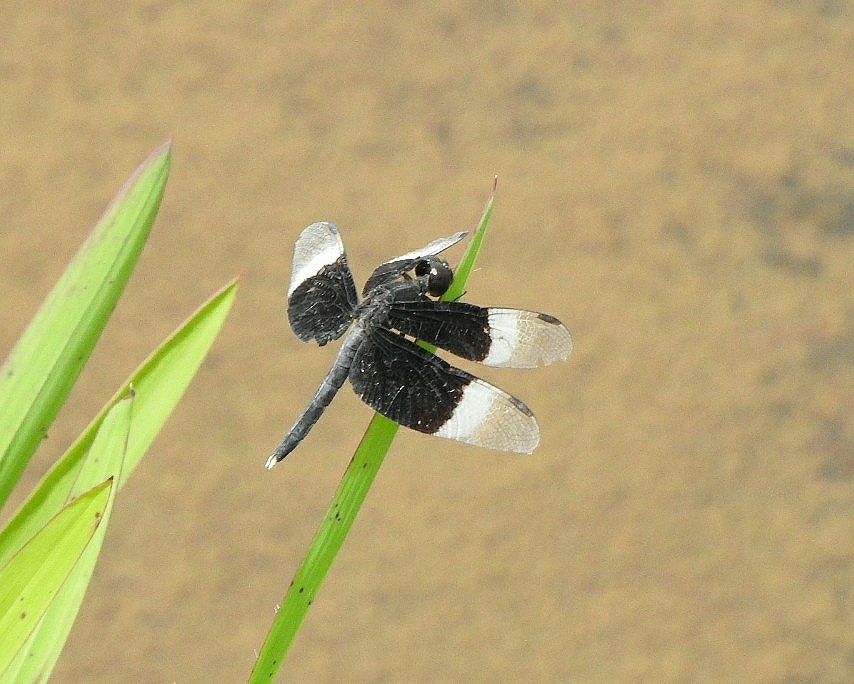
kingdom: Animalia
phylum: Arthropoda
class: Insecta
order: Odonata
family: Libellulidae
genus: Neurothemis
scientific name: Neurothemis tullia
